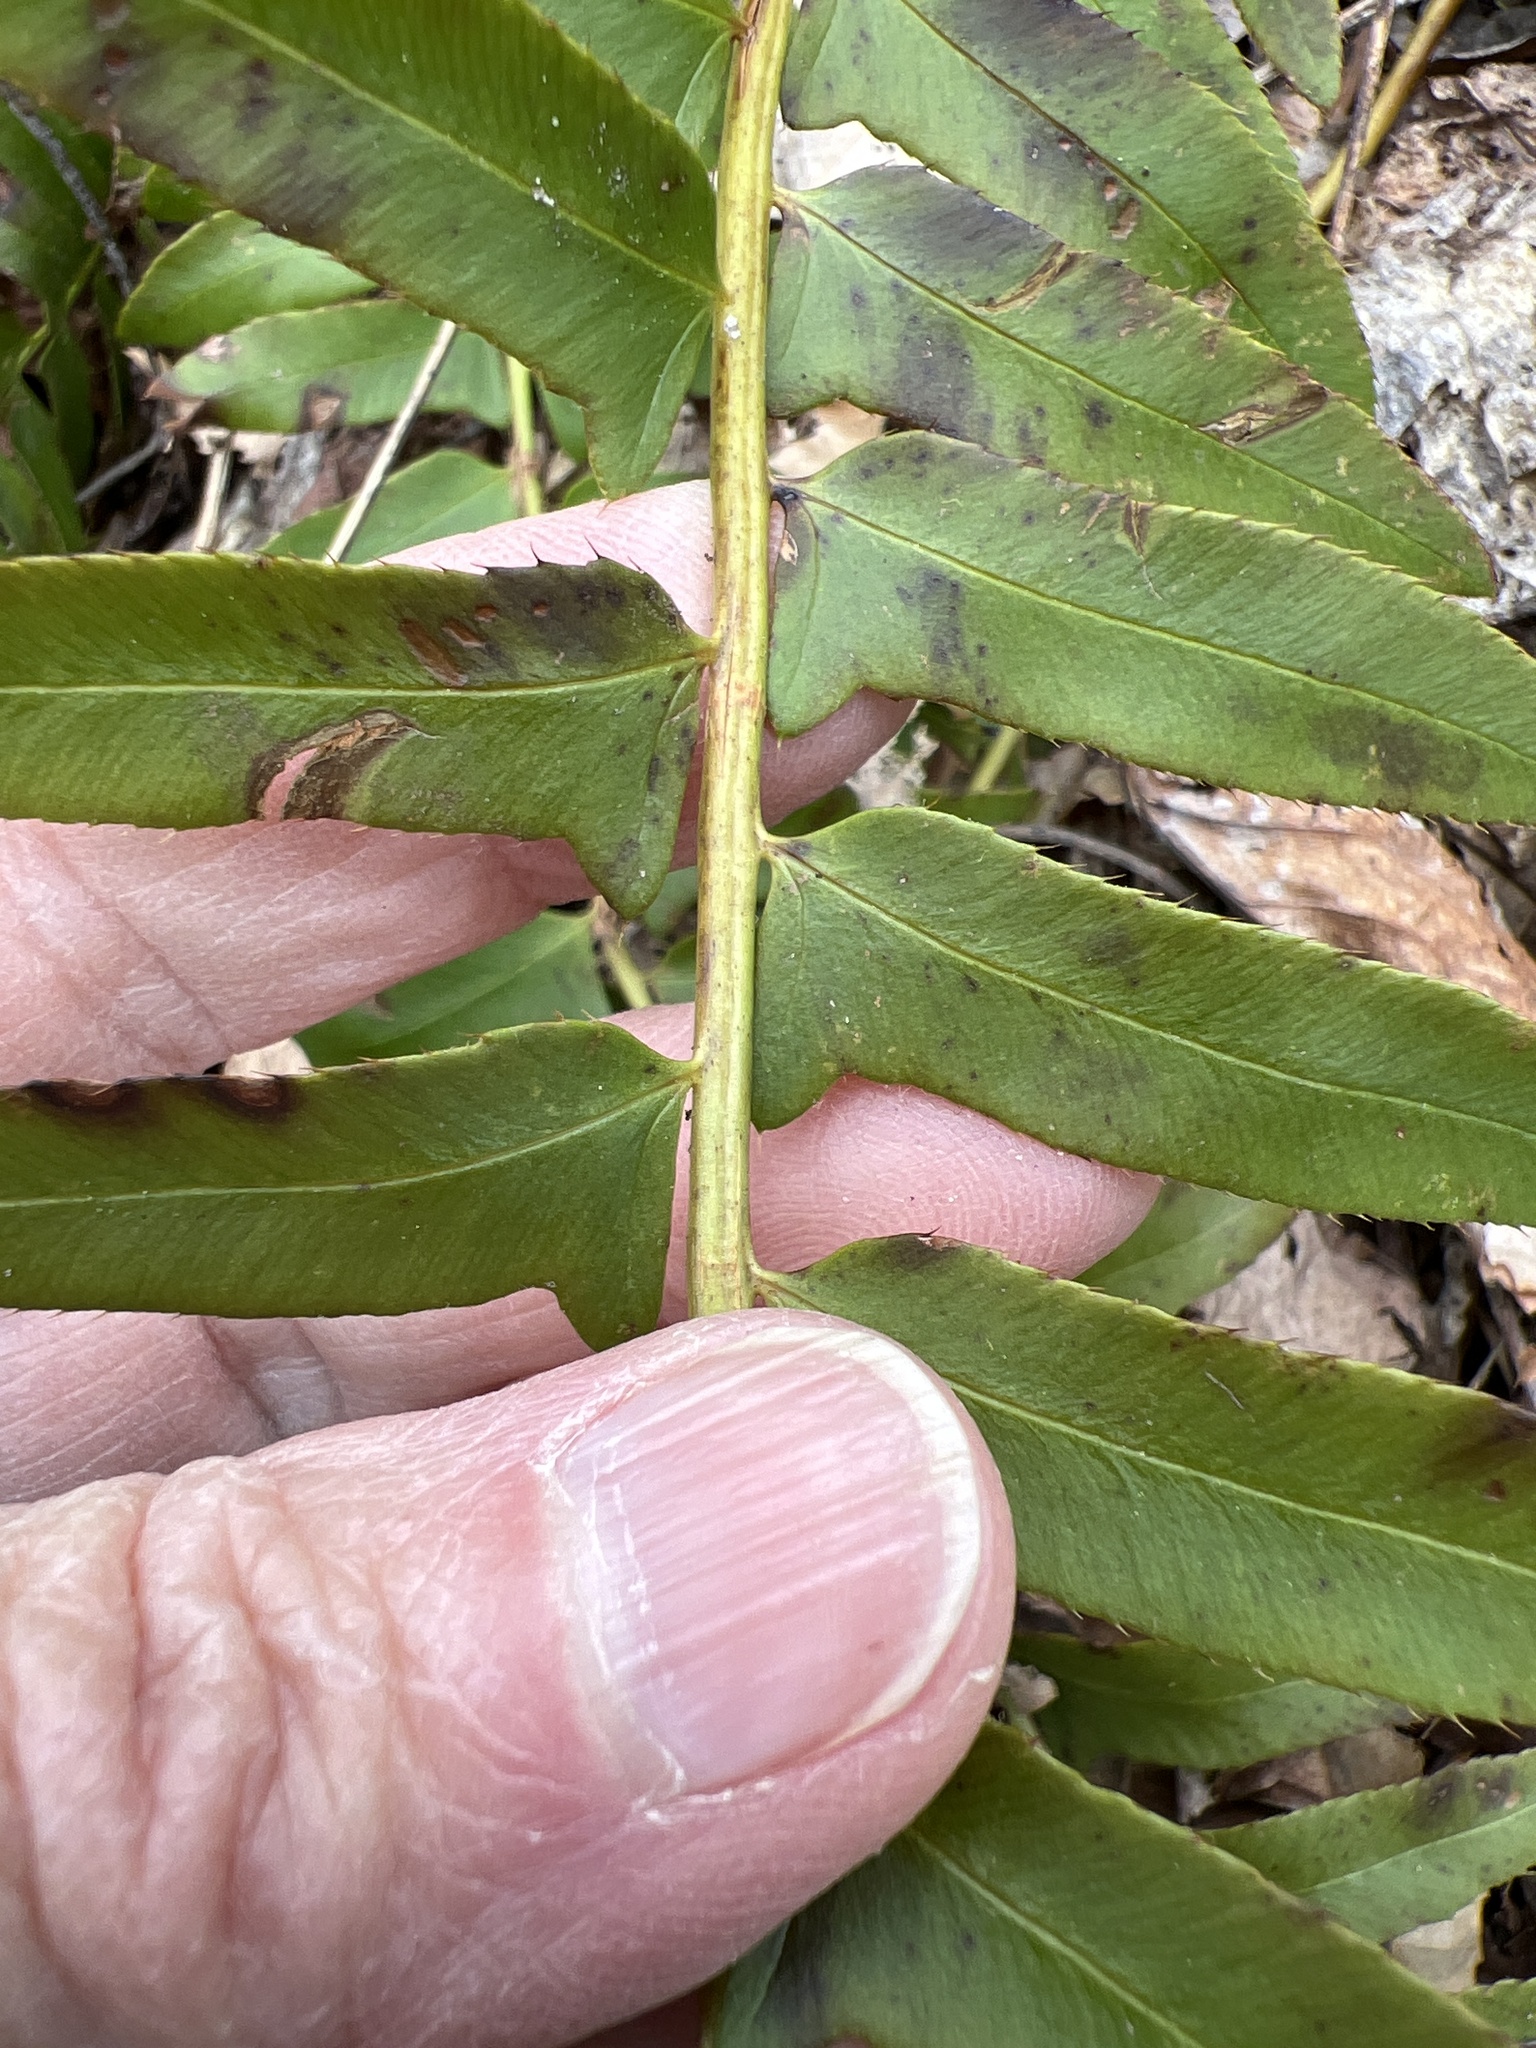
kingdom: Plantae
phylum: Tracheophyta
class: Polypodiopsida
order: Polypodiales
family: Dryopteridaceae
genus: Polystichum
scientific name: Polystichum acrostichoides
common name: Christmas fern
